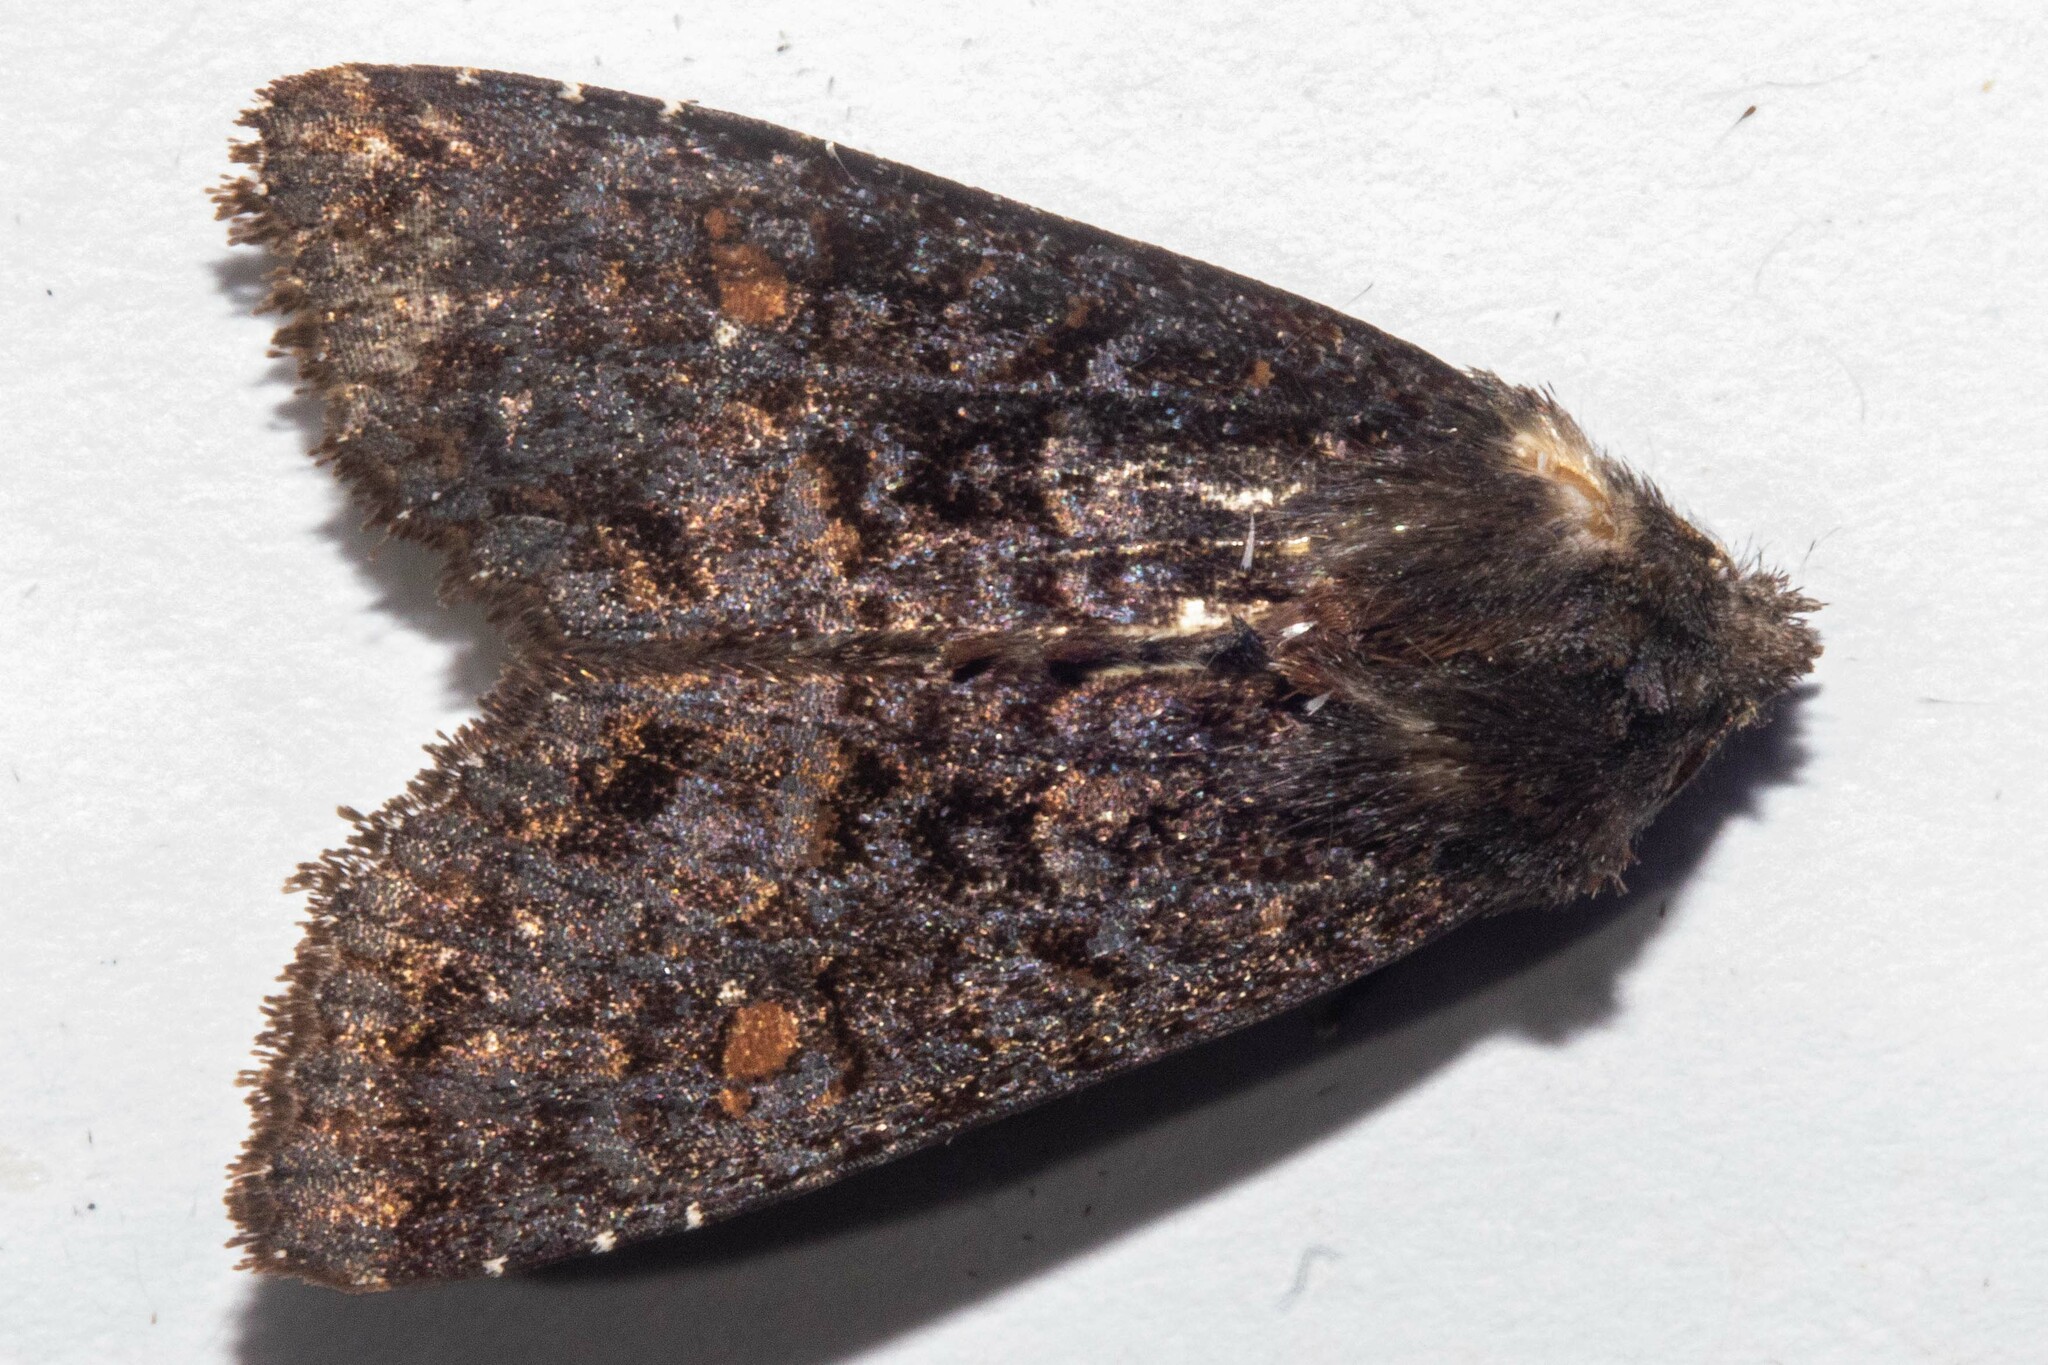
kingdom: Animalia
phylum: Arthropoda
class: Insecta
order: Lepidoptera
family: Noctuidae
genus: Meterana
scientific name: Meterana vitiosa
